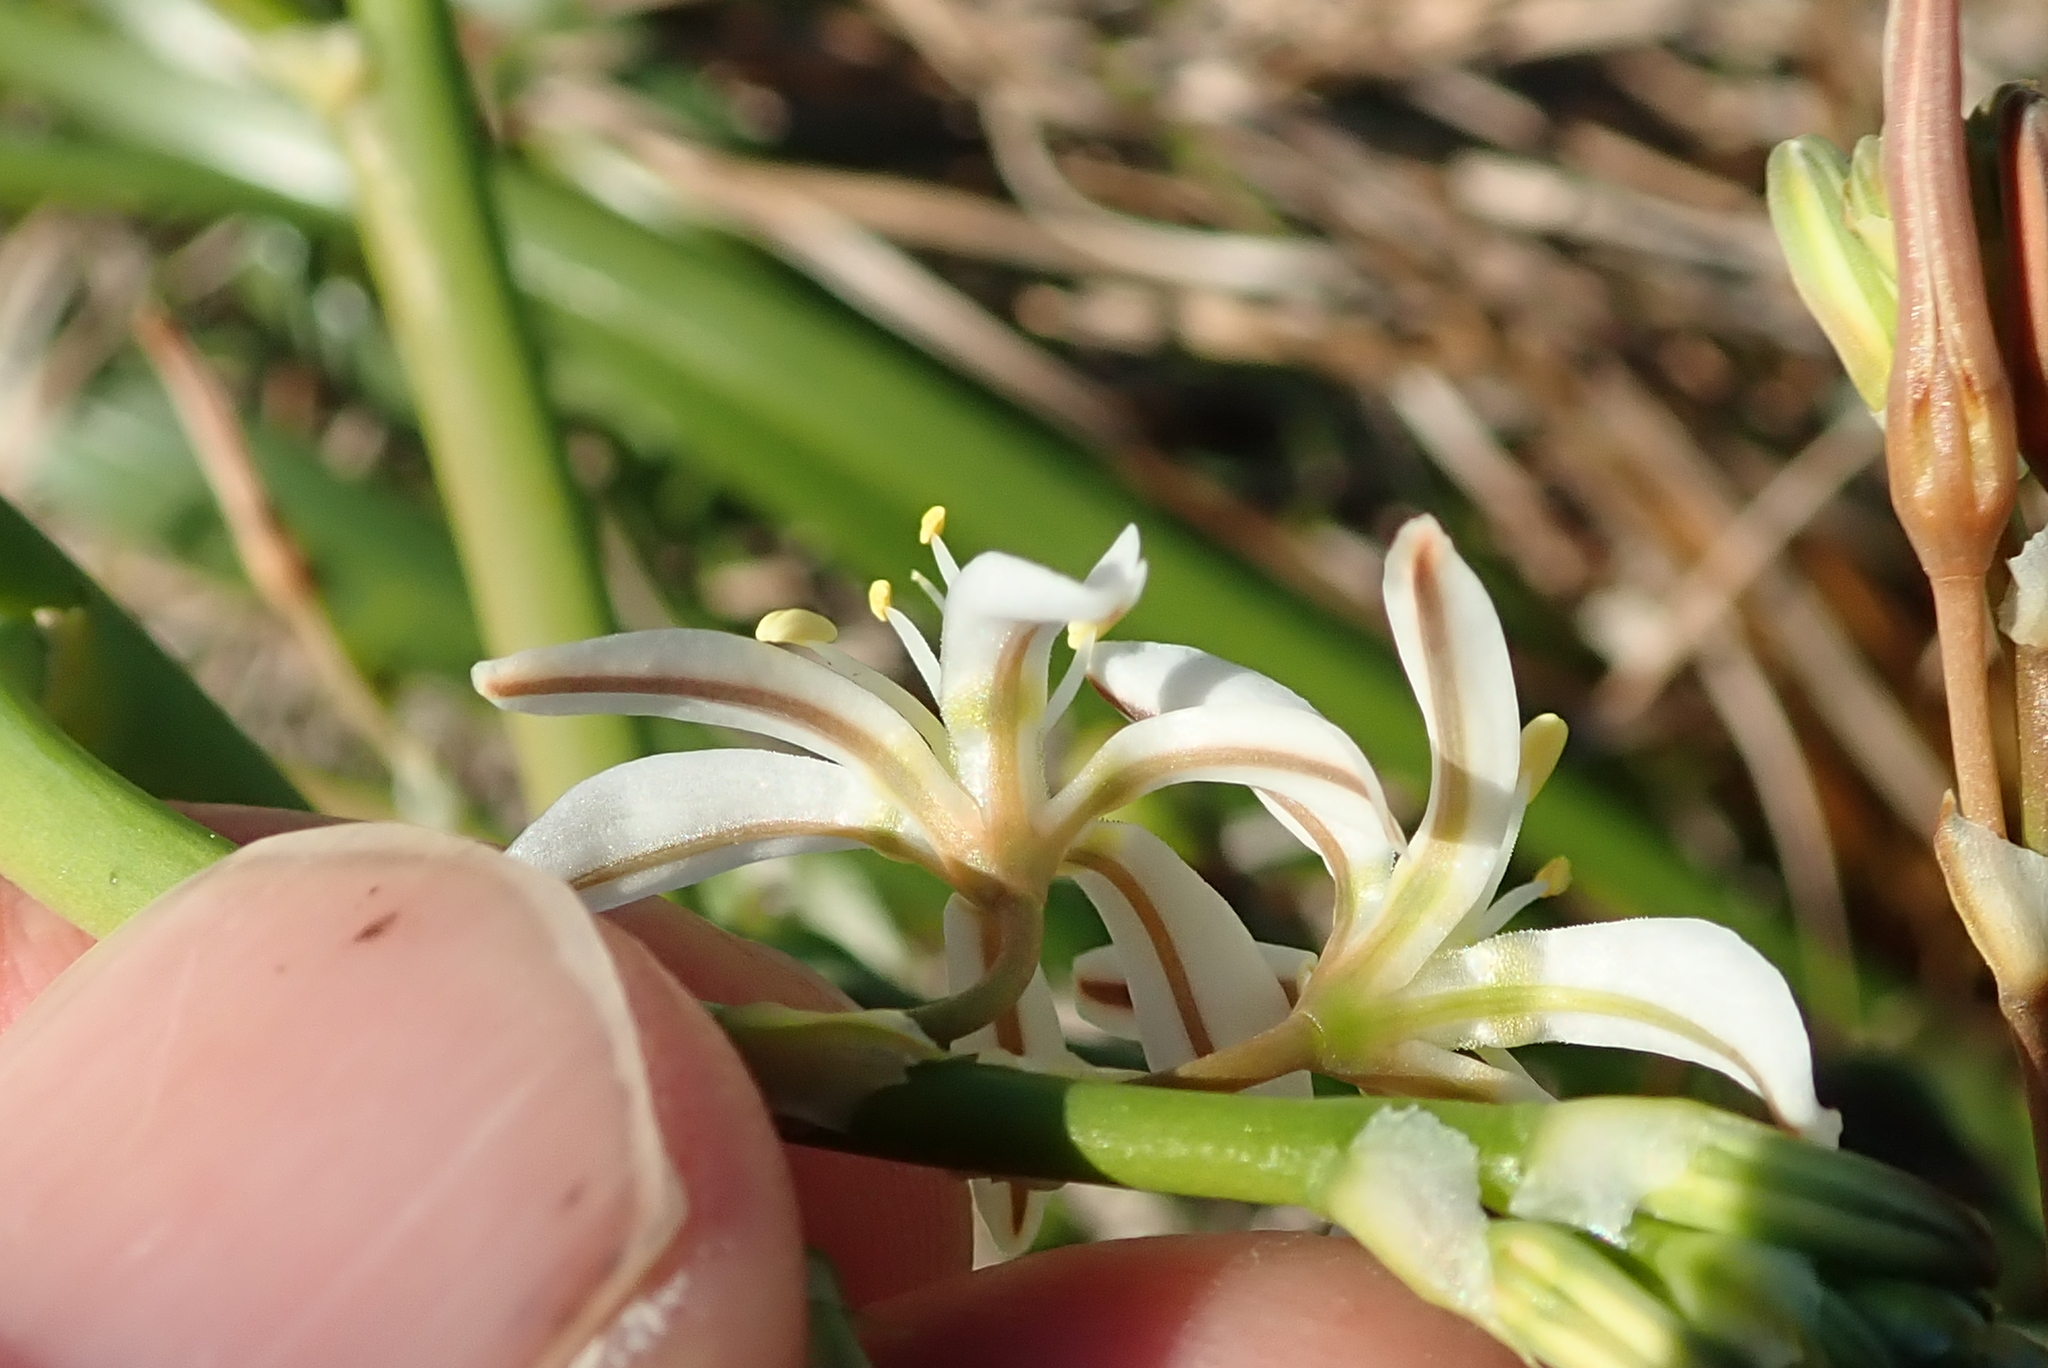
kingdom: Plantae
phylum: Tracheophyta
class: Liliopsida
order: Asparagales
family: Asphodelaceae
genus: Trachyandra
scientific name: Trachyandra divaricata
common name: Dune onionweed
